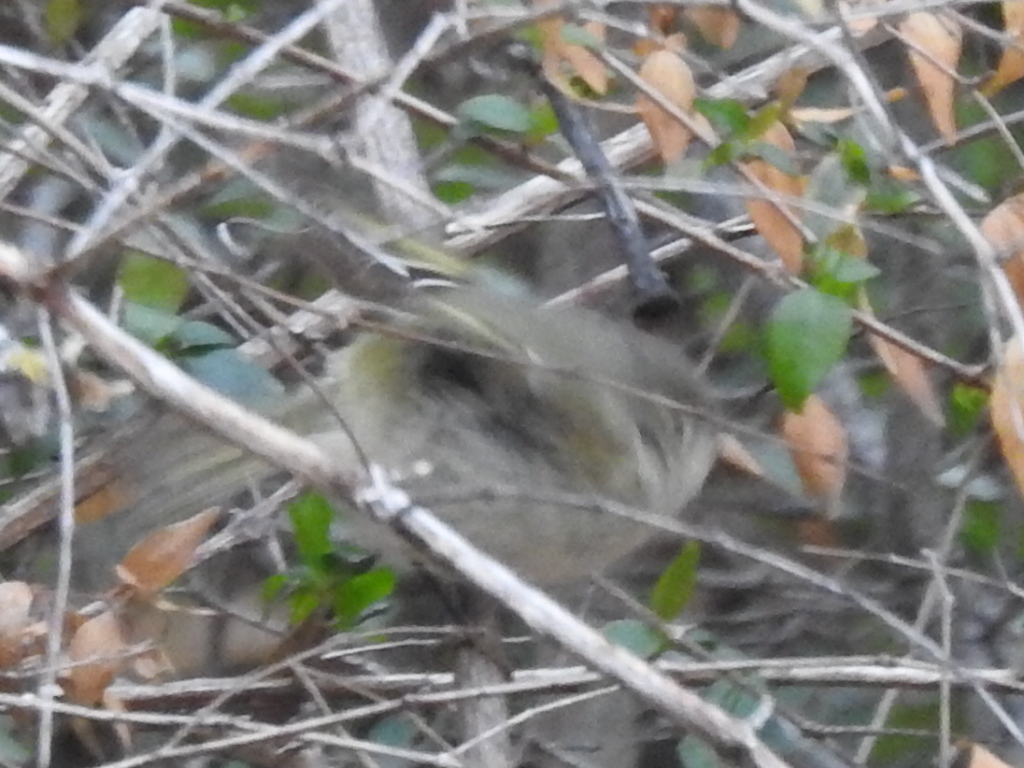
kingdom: Animalia
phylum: Chordata
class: Aves
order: Passeriformes
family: Regulidae
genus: Regulus
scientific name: Regulus calendula
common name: Ruby-crowned kinglet
